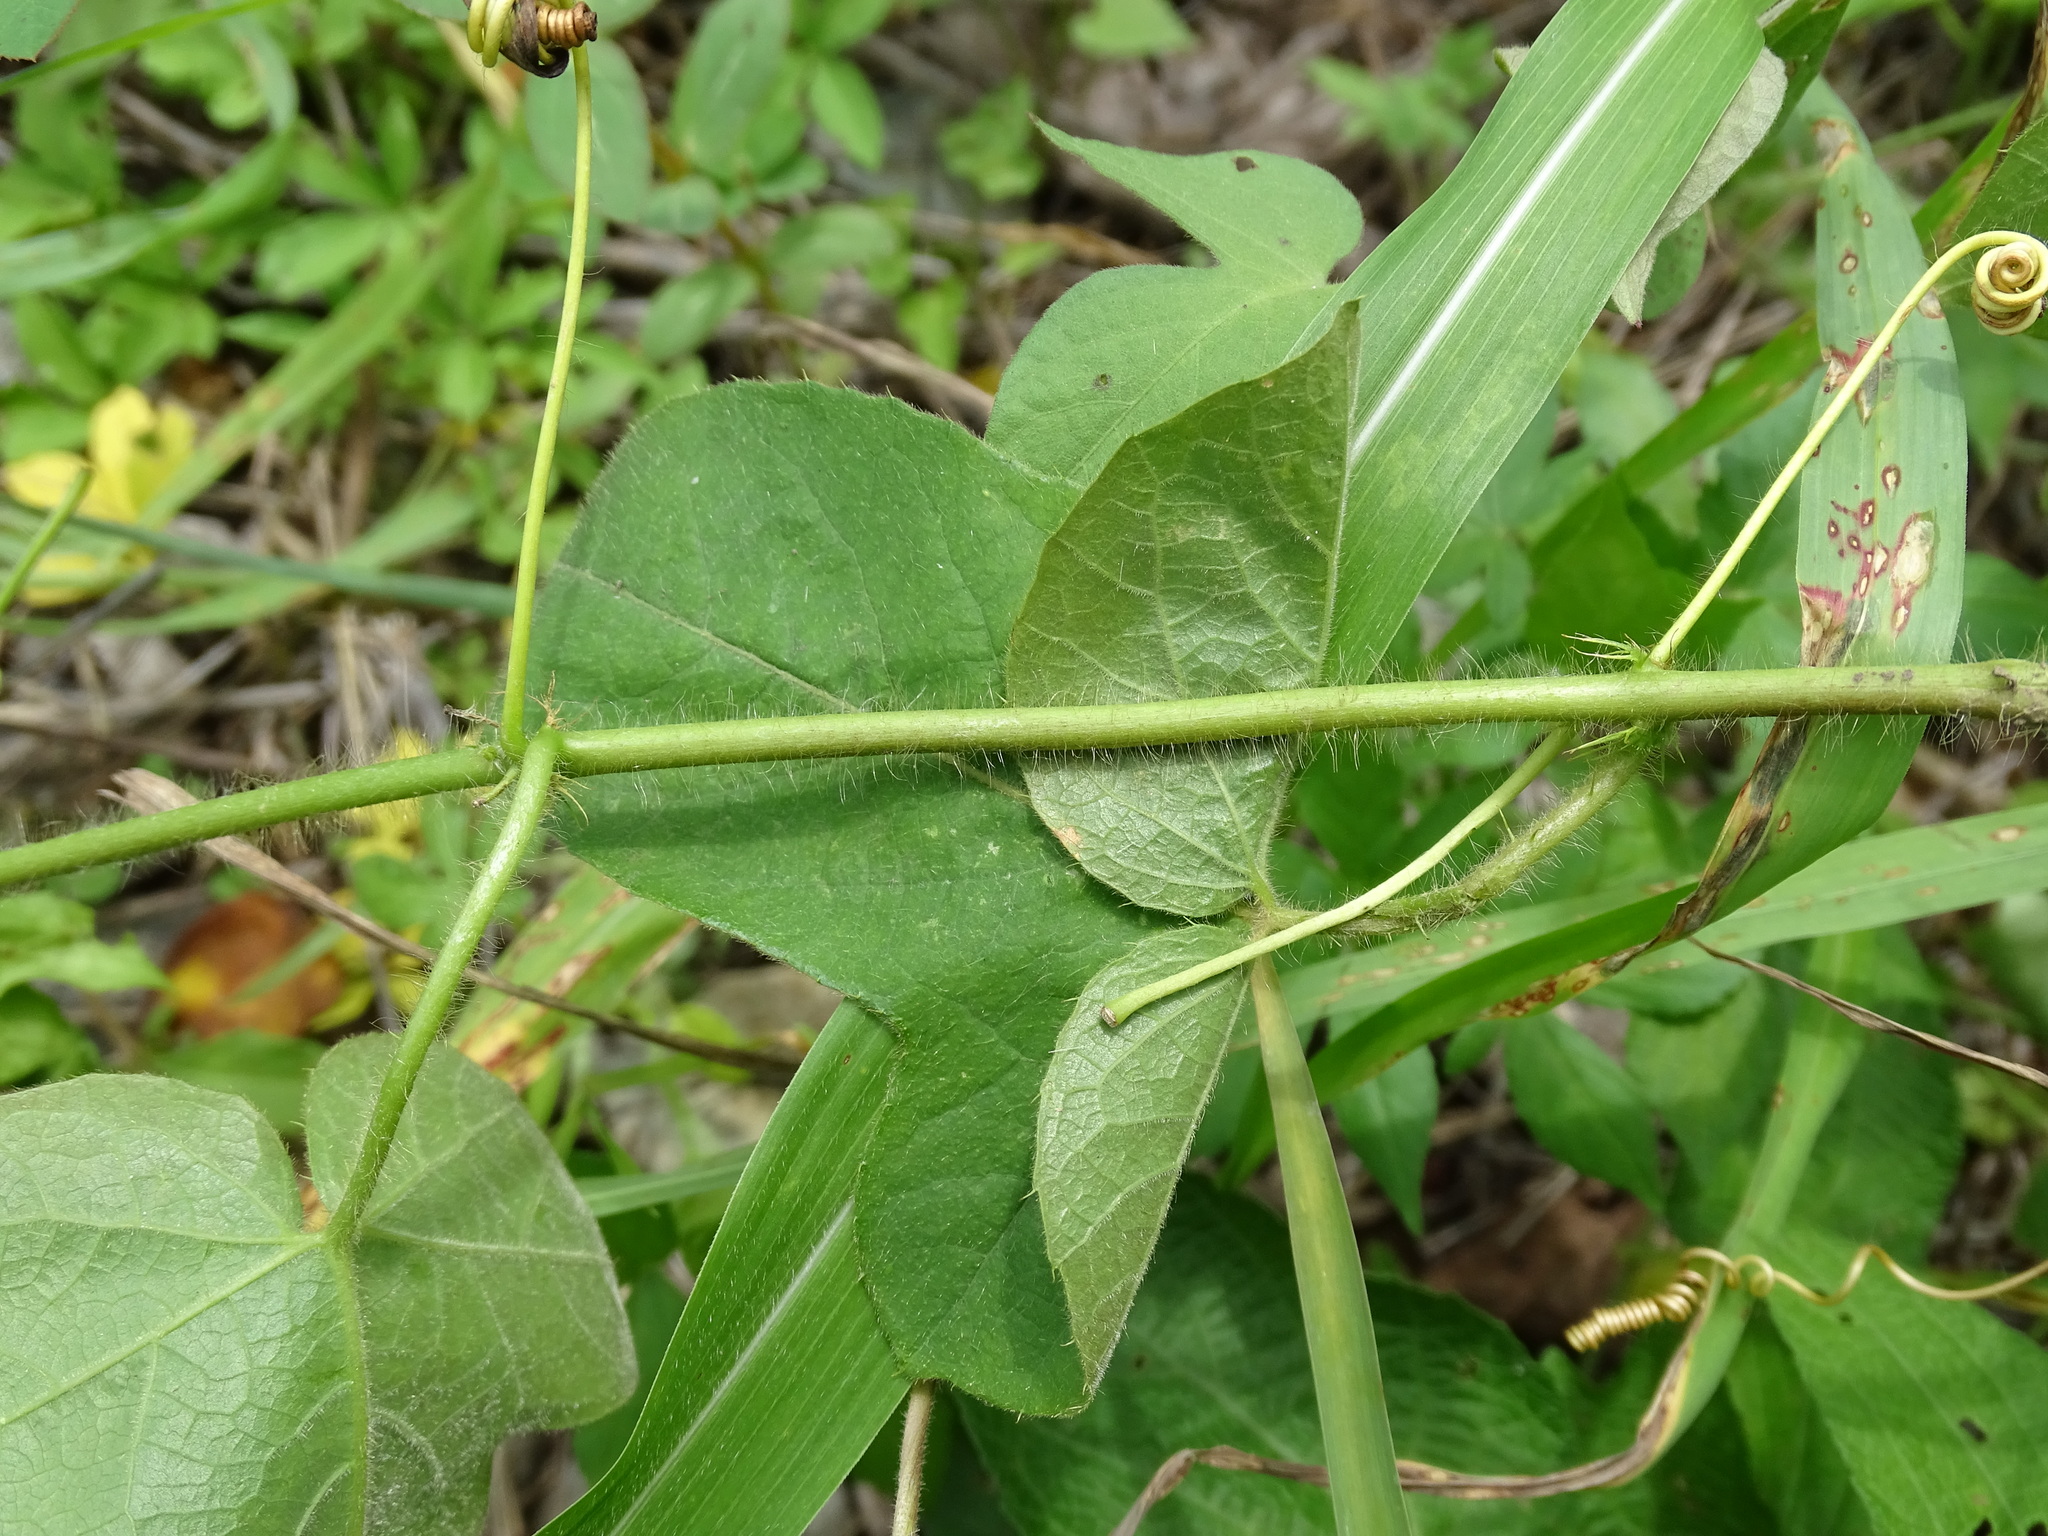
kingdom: Plantae
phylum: Tracheophyta
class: Magnoliopsida
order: Malpighiales
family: Passifloraceae
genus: Passiflora
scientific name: Passiflora foetida
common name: Fetid passionflower
